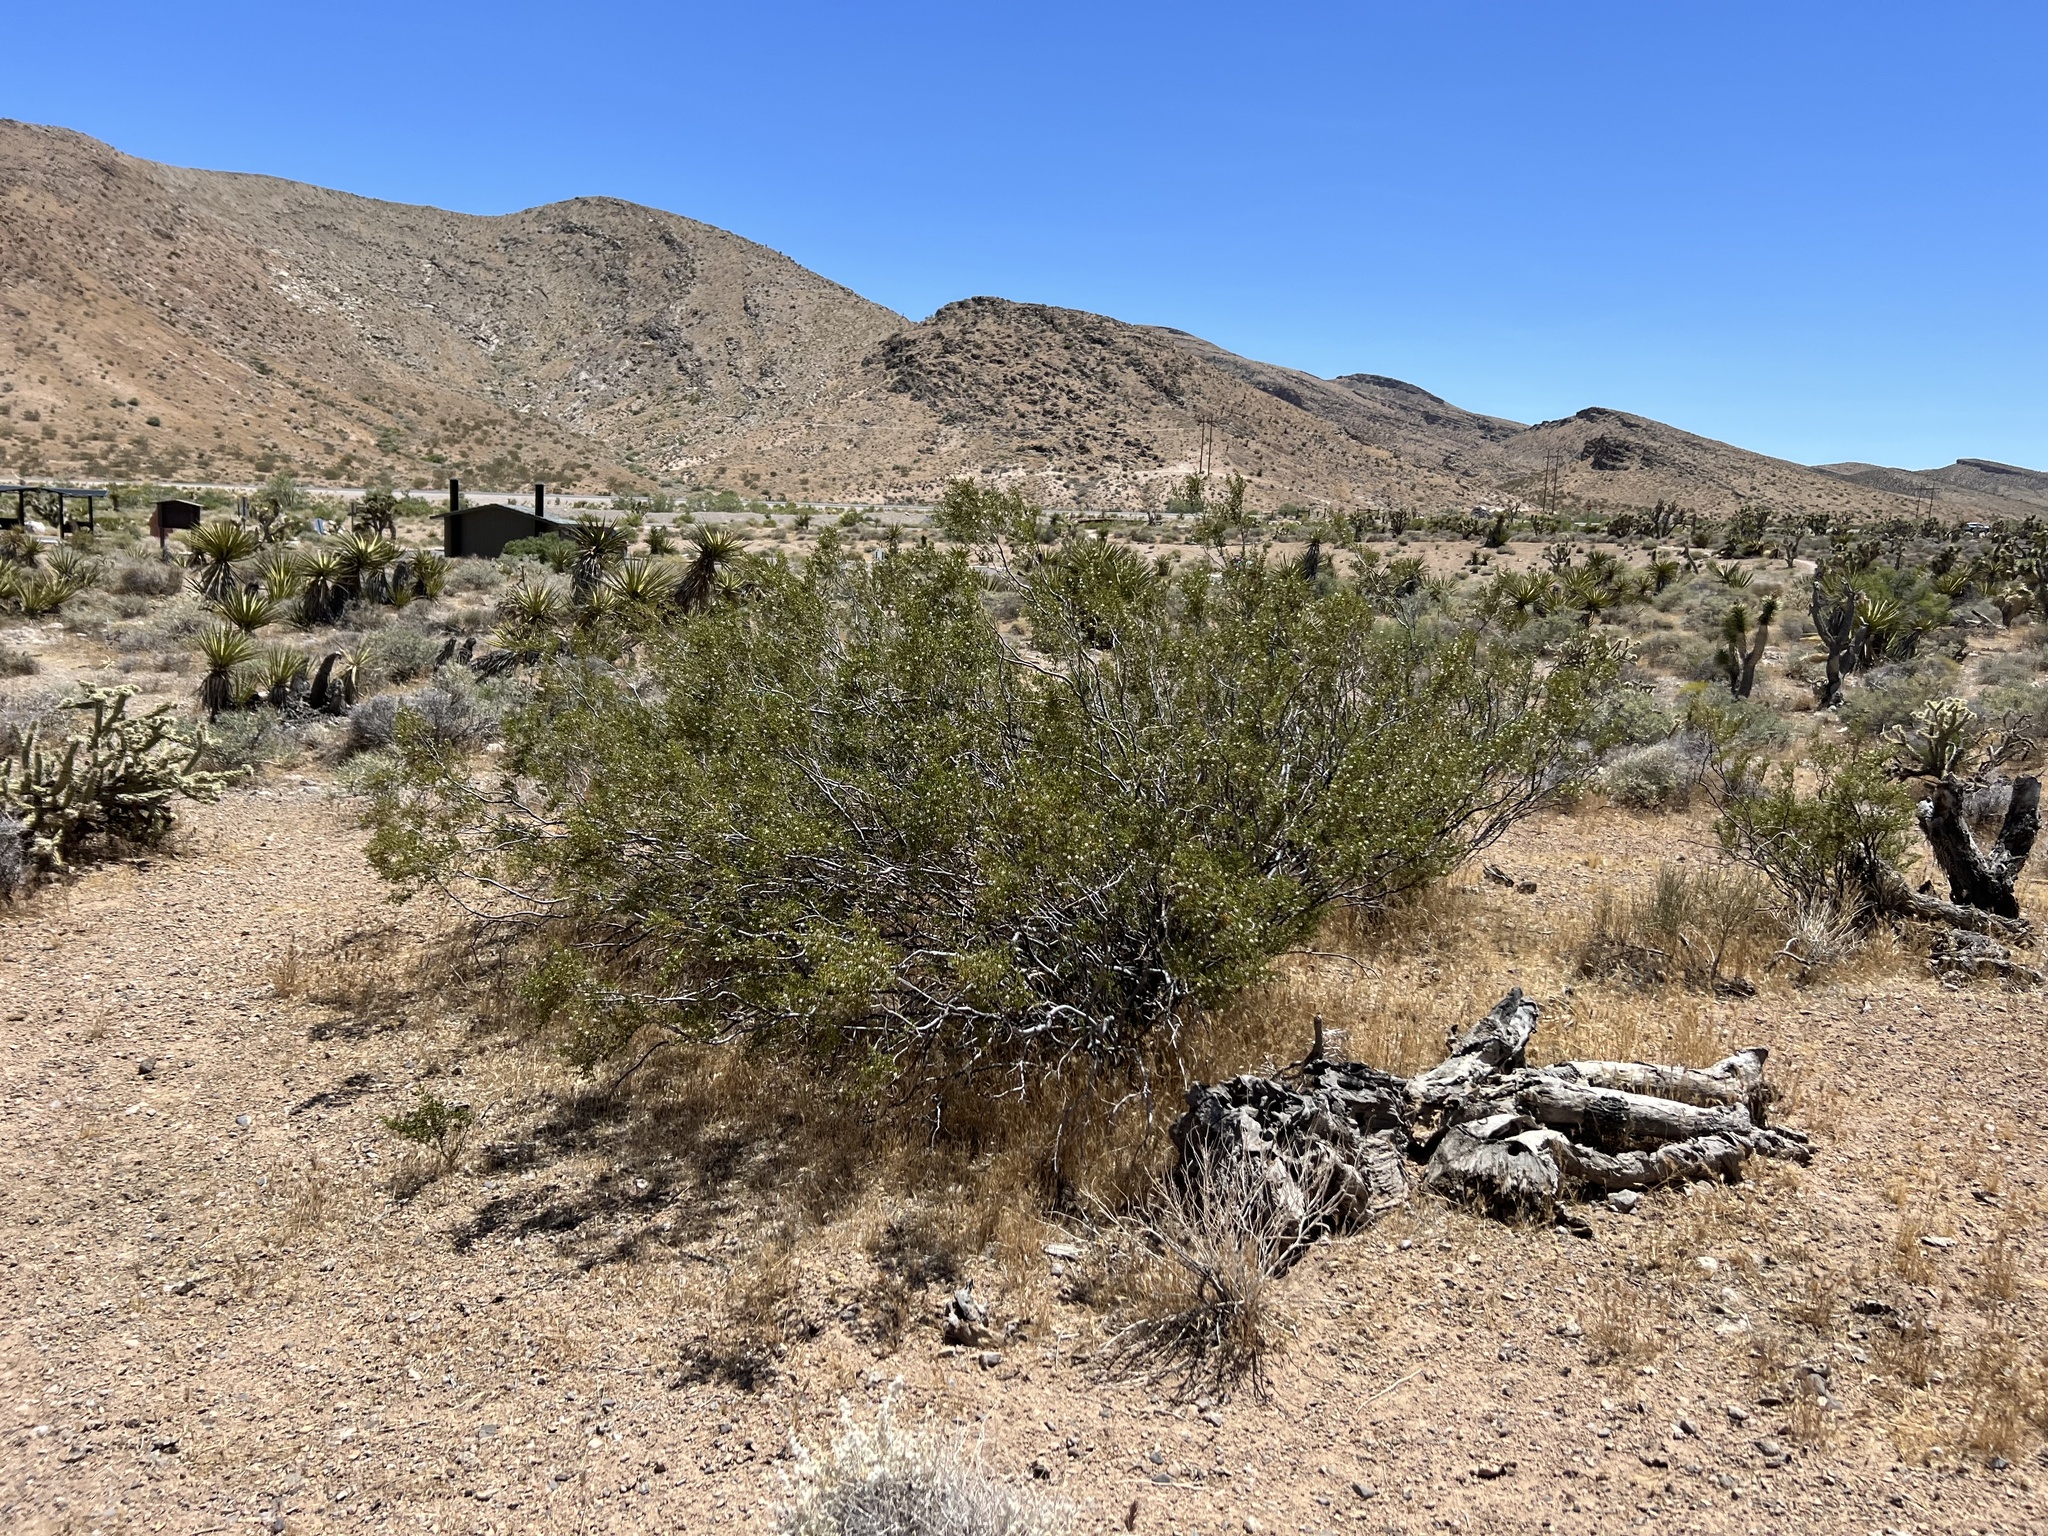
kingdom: Plantae
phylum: Tracheophyta
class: Magnoliopsida
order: Zygophyllales
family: Zygophyllaceae
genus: Larrea
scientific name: Larrea tridentata
